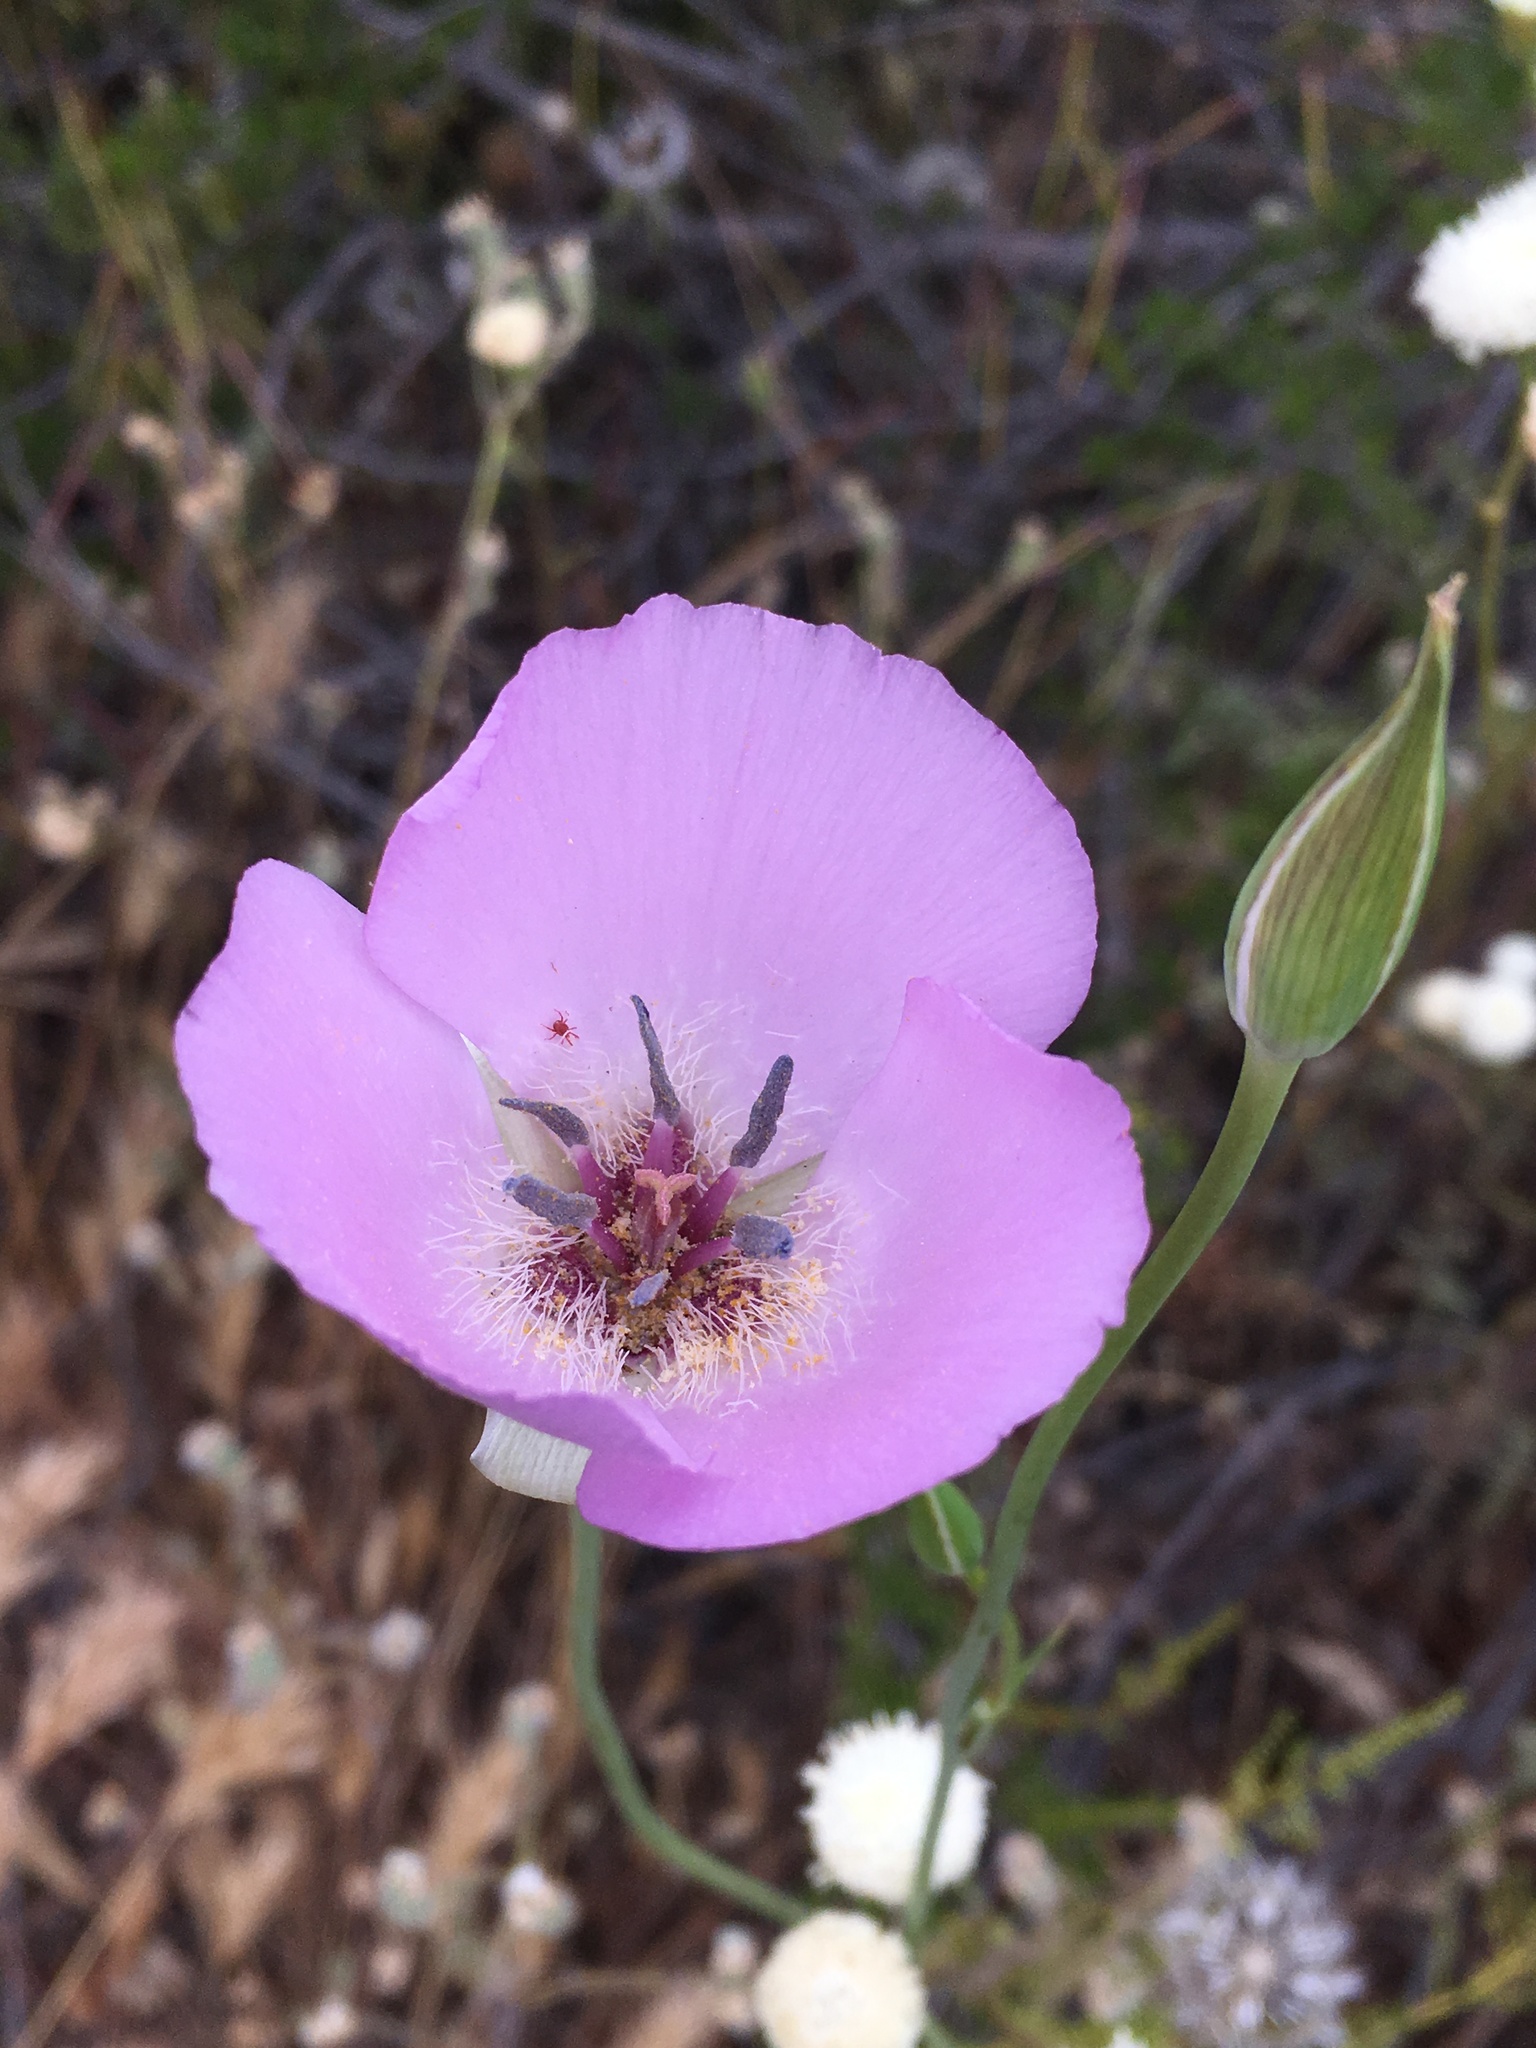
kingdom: Plantae
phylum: Tracheophyta
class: Liliopsida
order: Liliales
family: Liliaceae
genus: Calochortus
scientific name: Calochortus splendens
